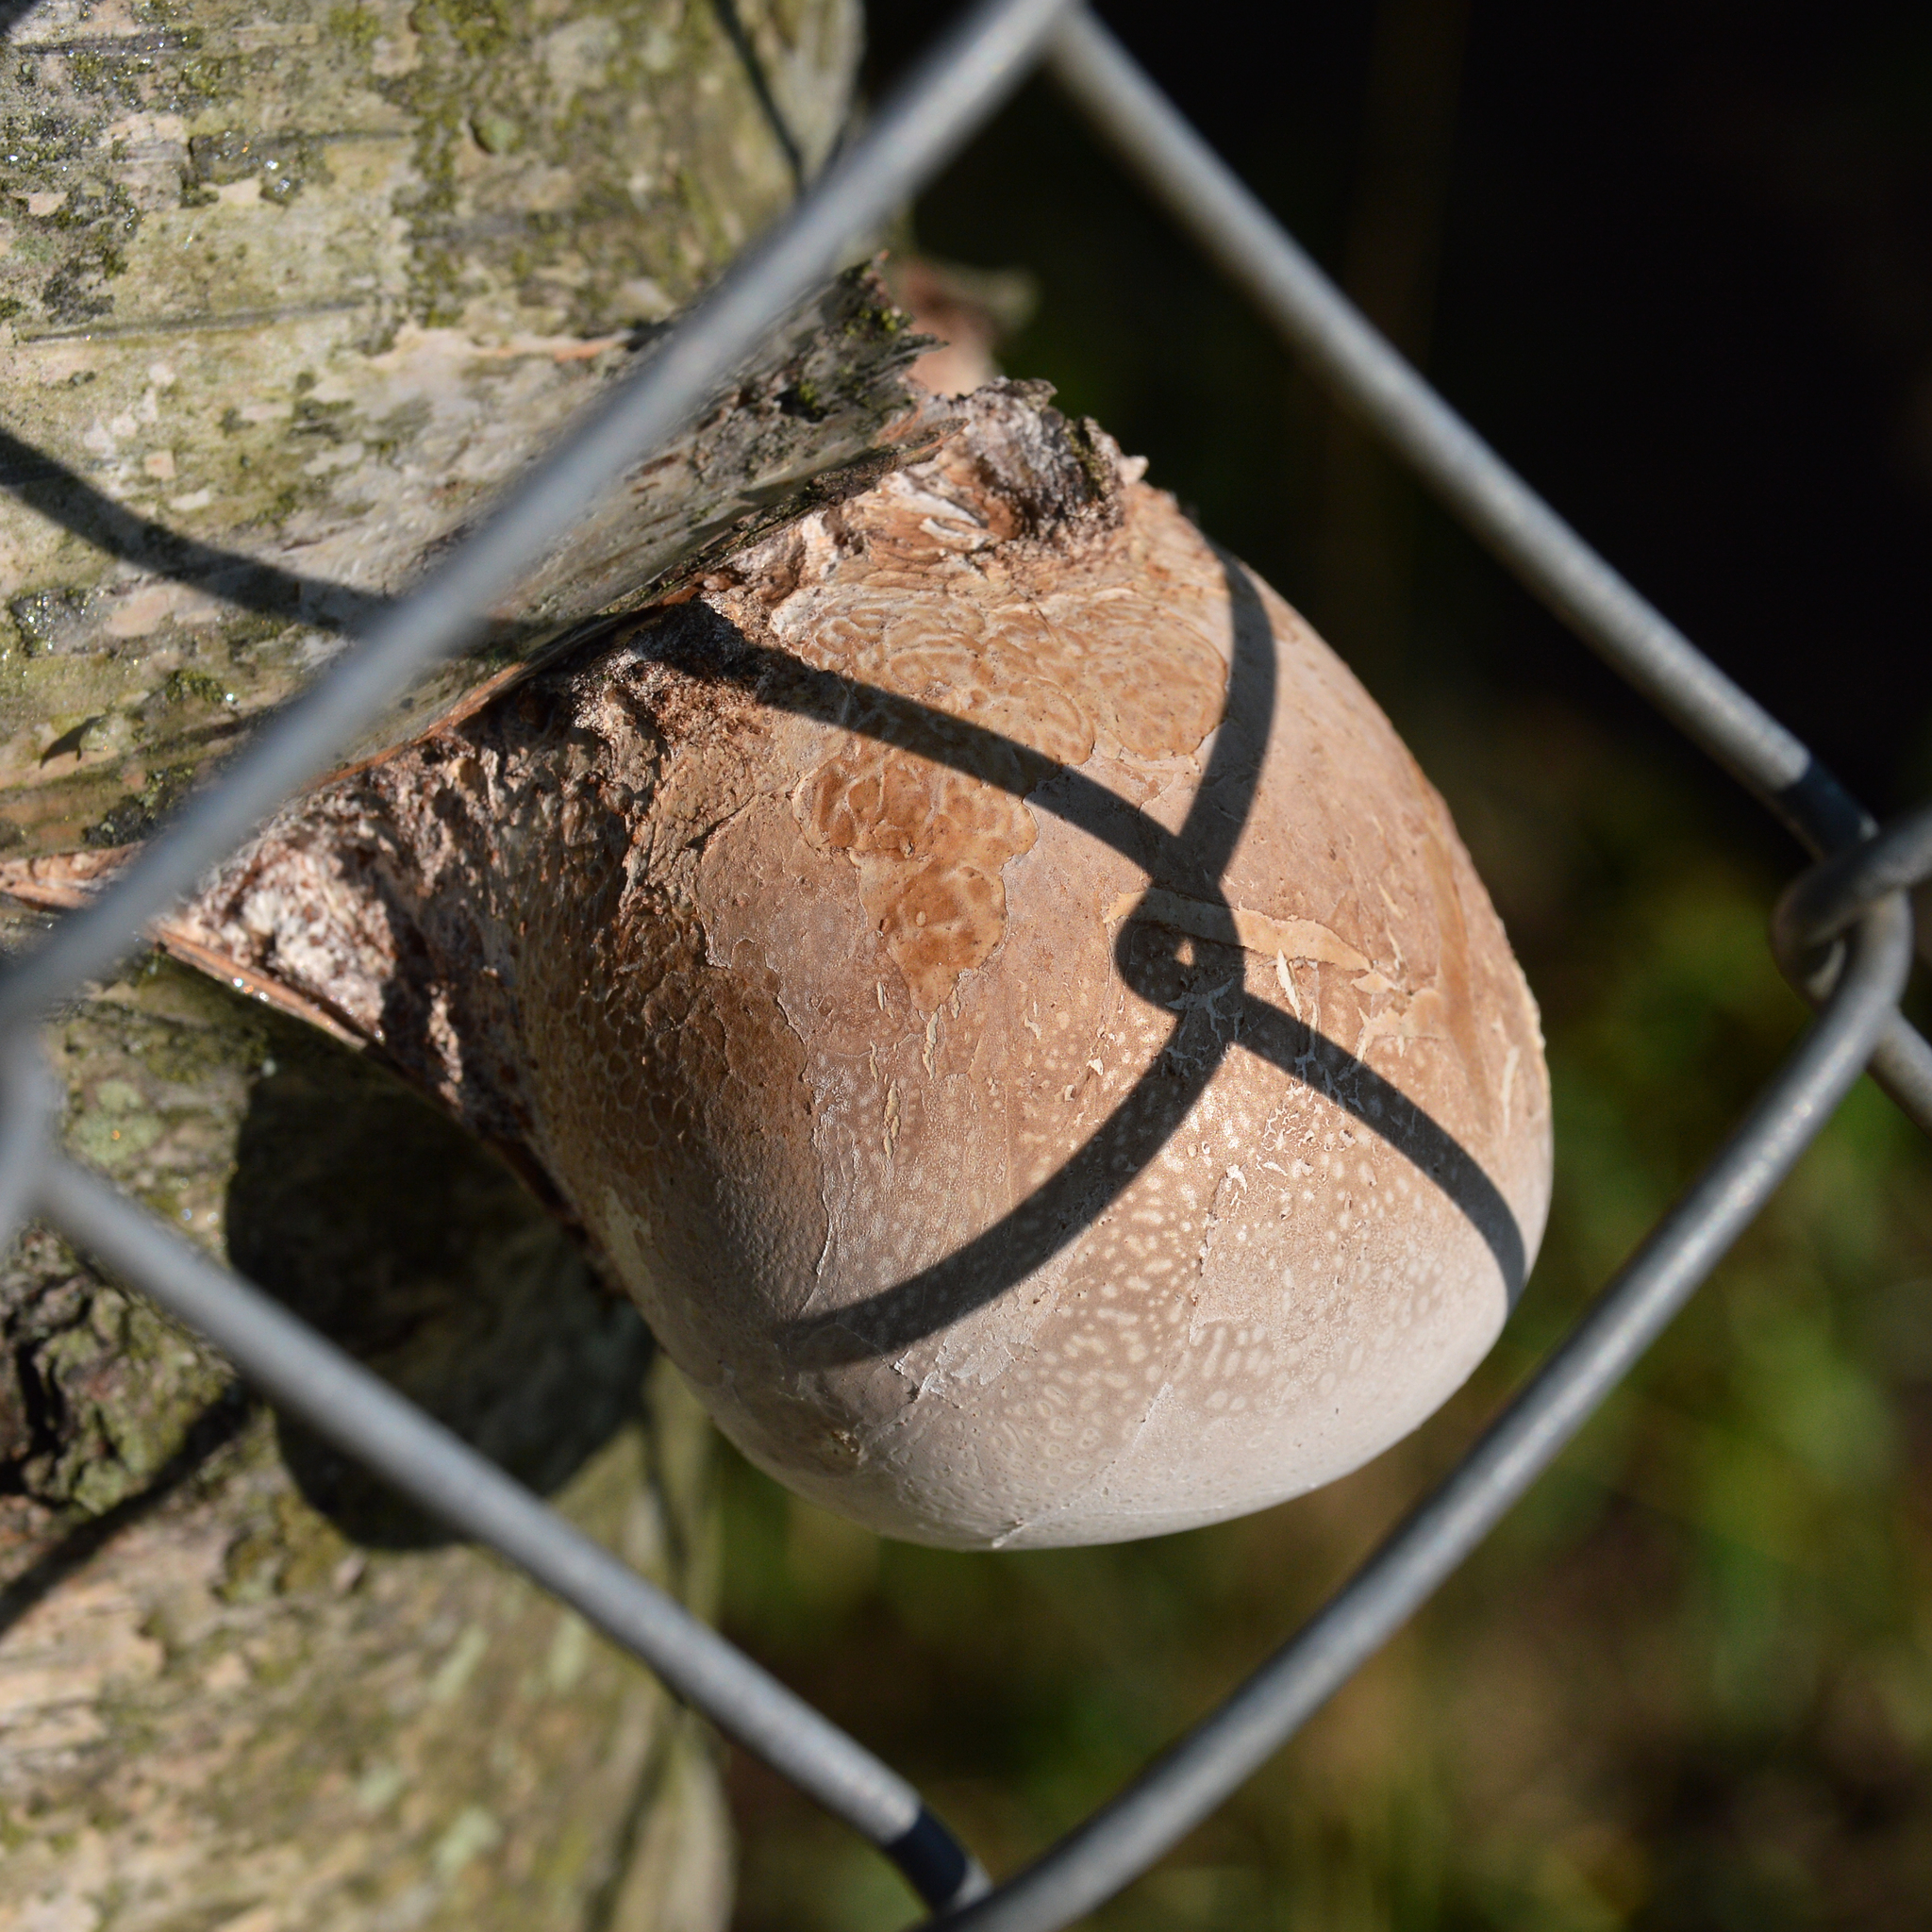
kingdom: Fungi
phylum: Basidiomycota
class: Agaricomycetes
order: Polyporales
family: Fomitopsidaceae
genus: Fomitopsis
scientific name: Fomitopsis betulina
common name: Birch polypore
